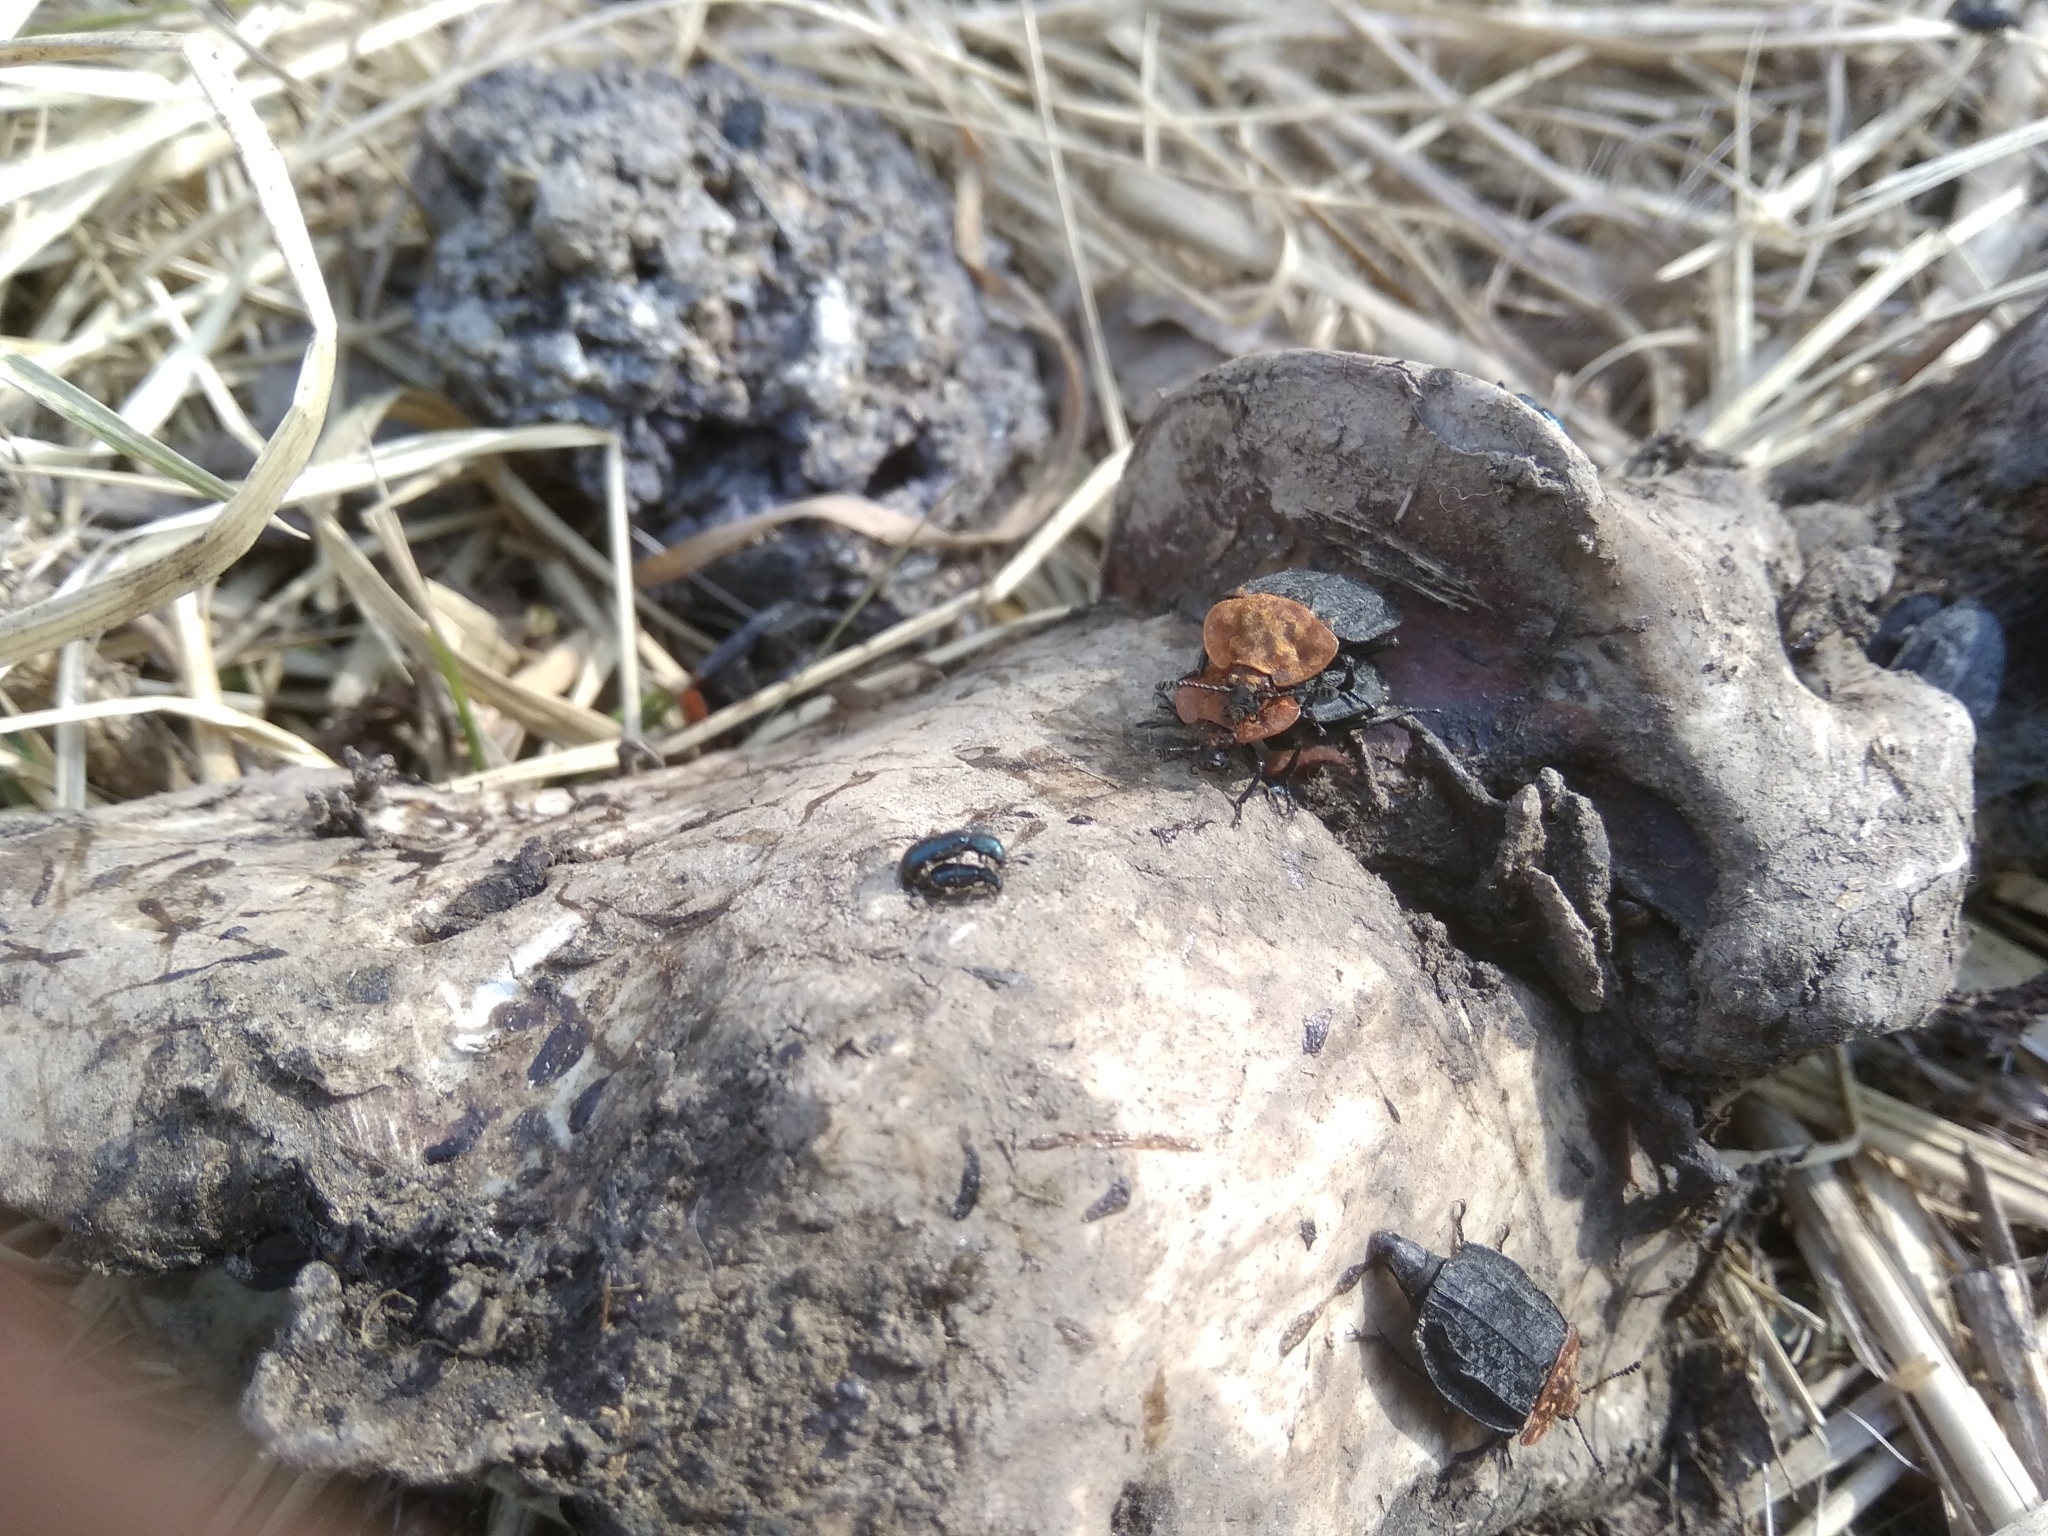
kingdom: Animalia
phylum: Arthropoda
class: Insecta
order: Coleoptera
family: Staphylinidae
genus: Oiceoptoma
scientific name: Oiceoptoma thoracicum
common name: Red-breasted carrion beetle
